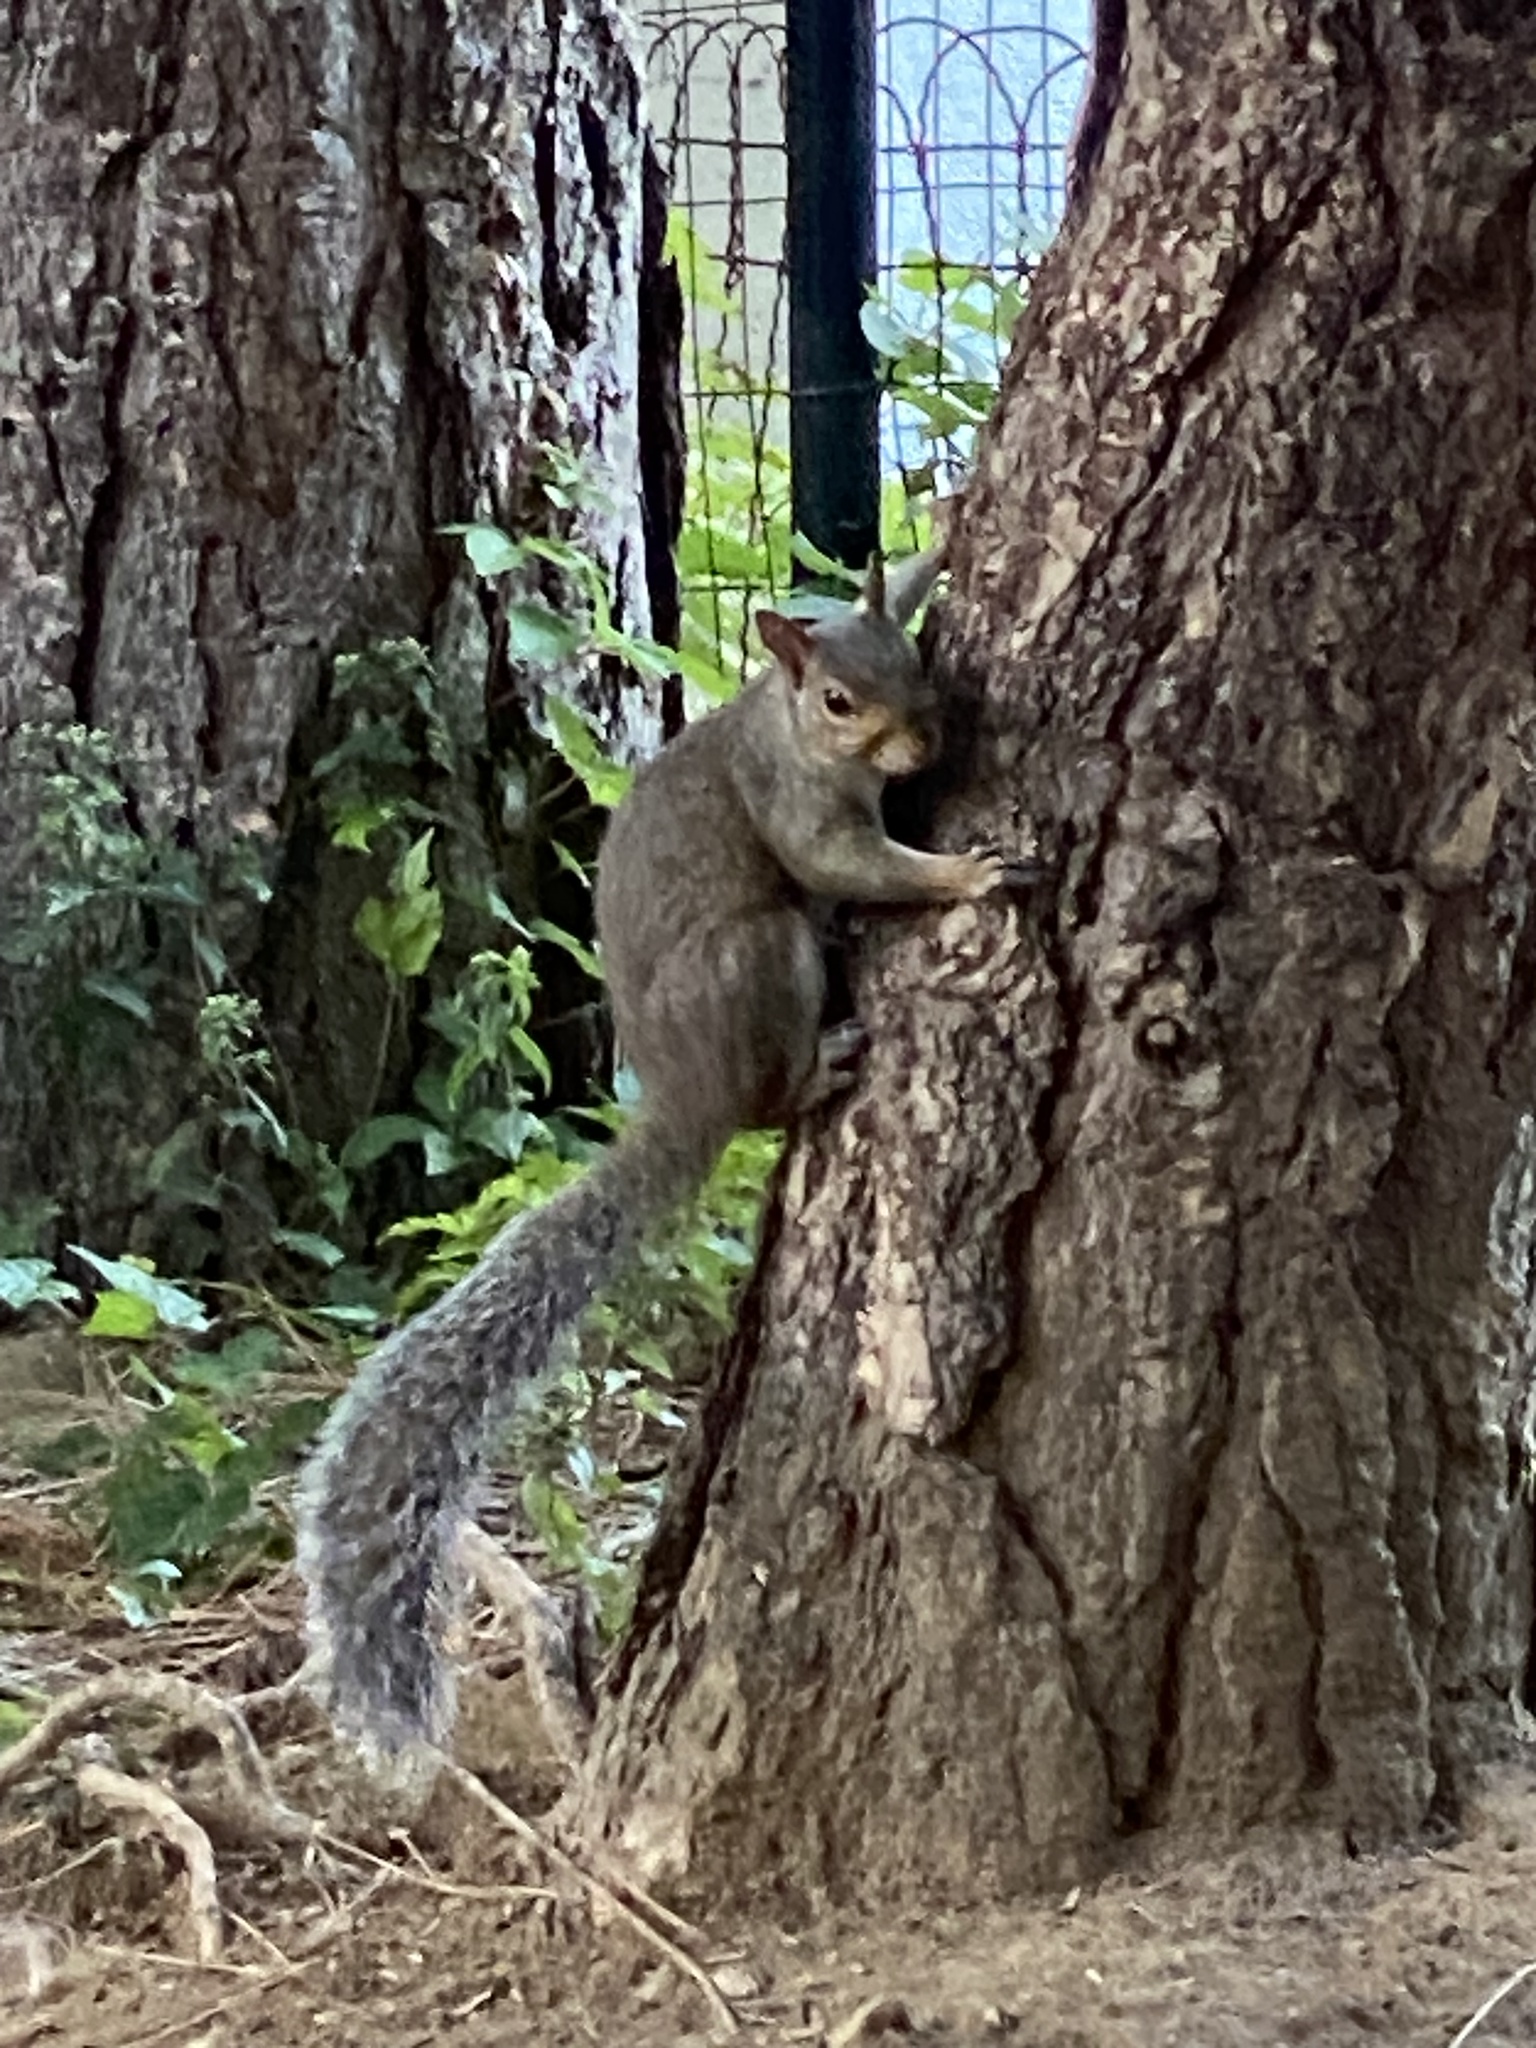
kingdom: Animalia
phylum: Chordata
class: Mammalia
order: Rodentia
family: Sciuridae
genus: Sciurus
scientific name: Sciurus carolinensis
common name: Eastern gray squirrel
